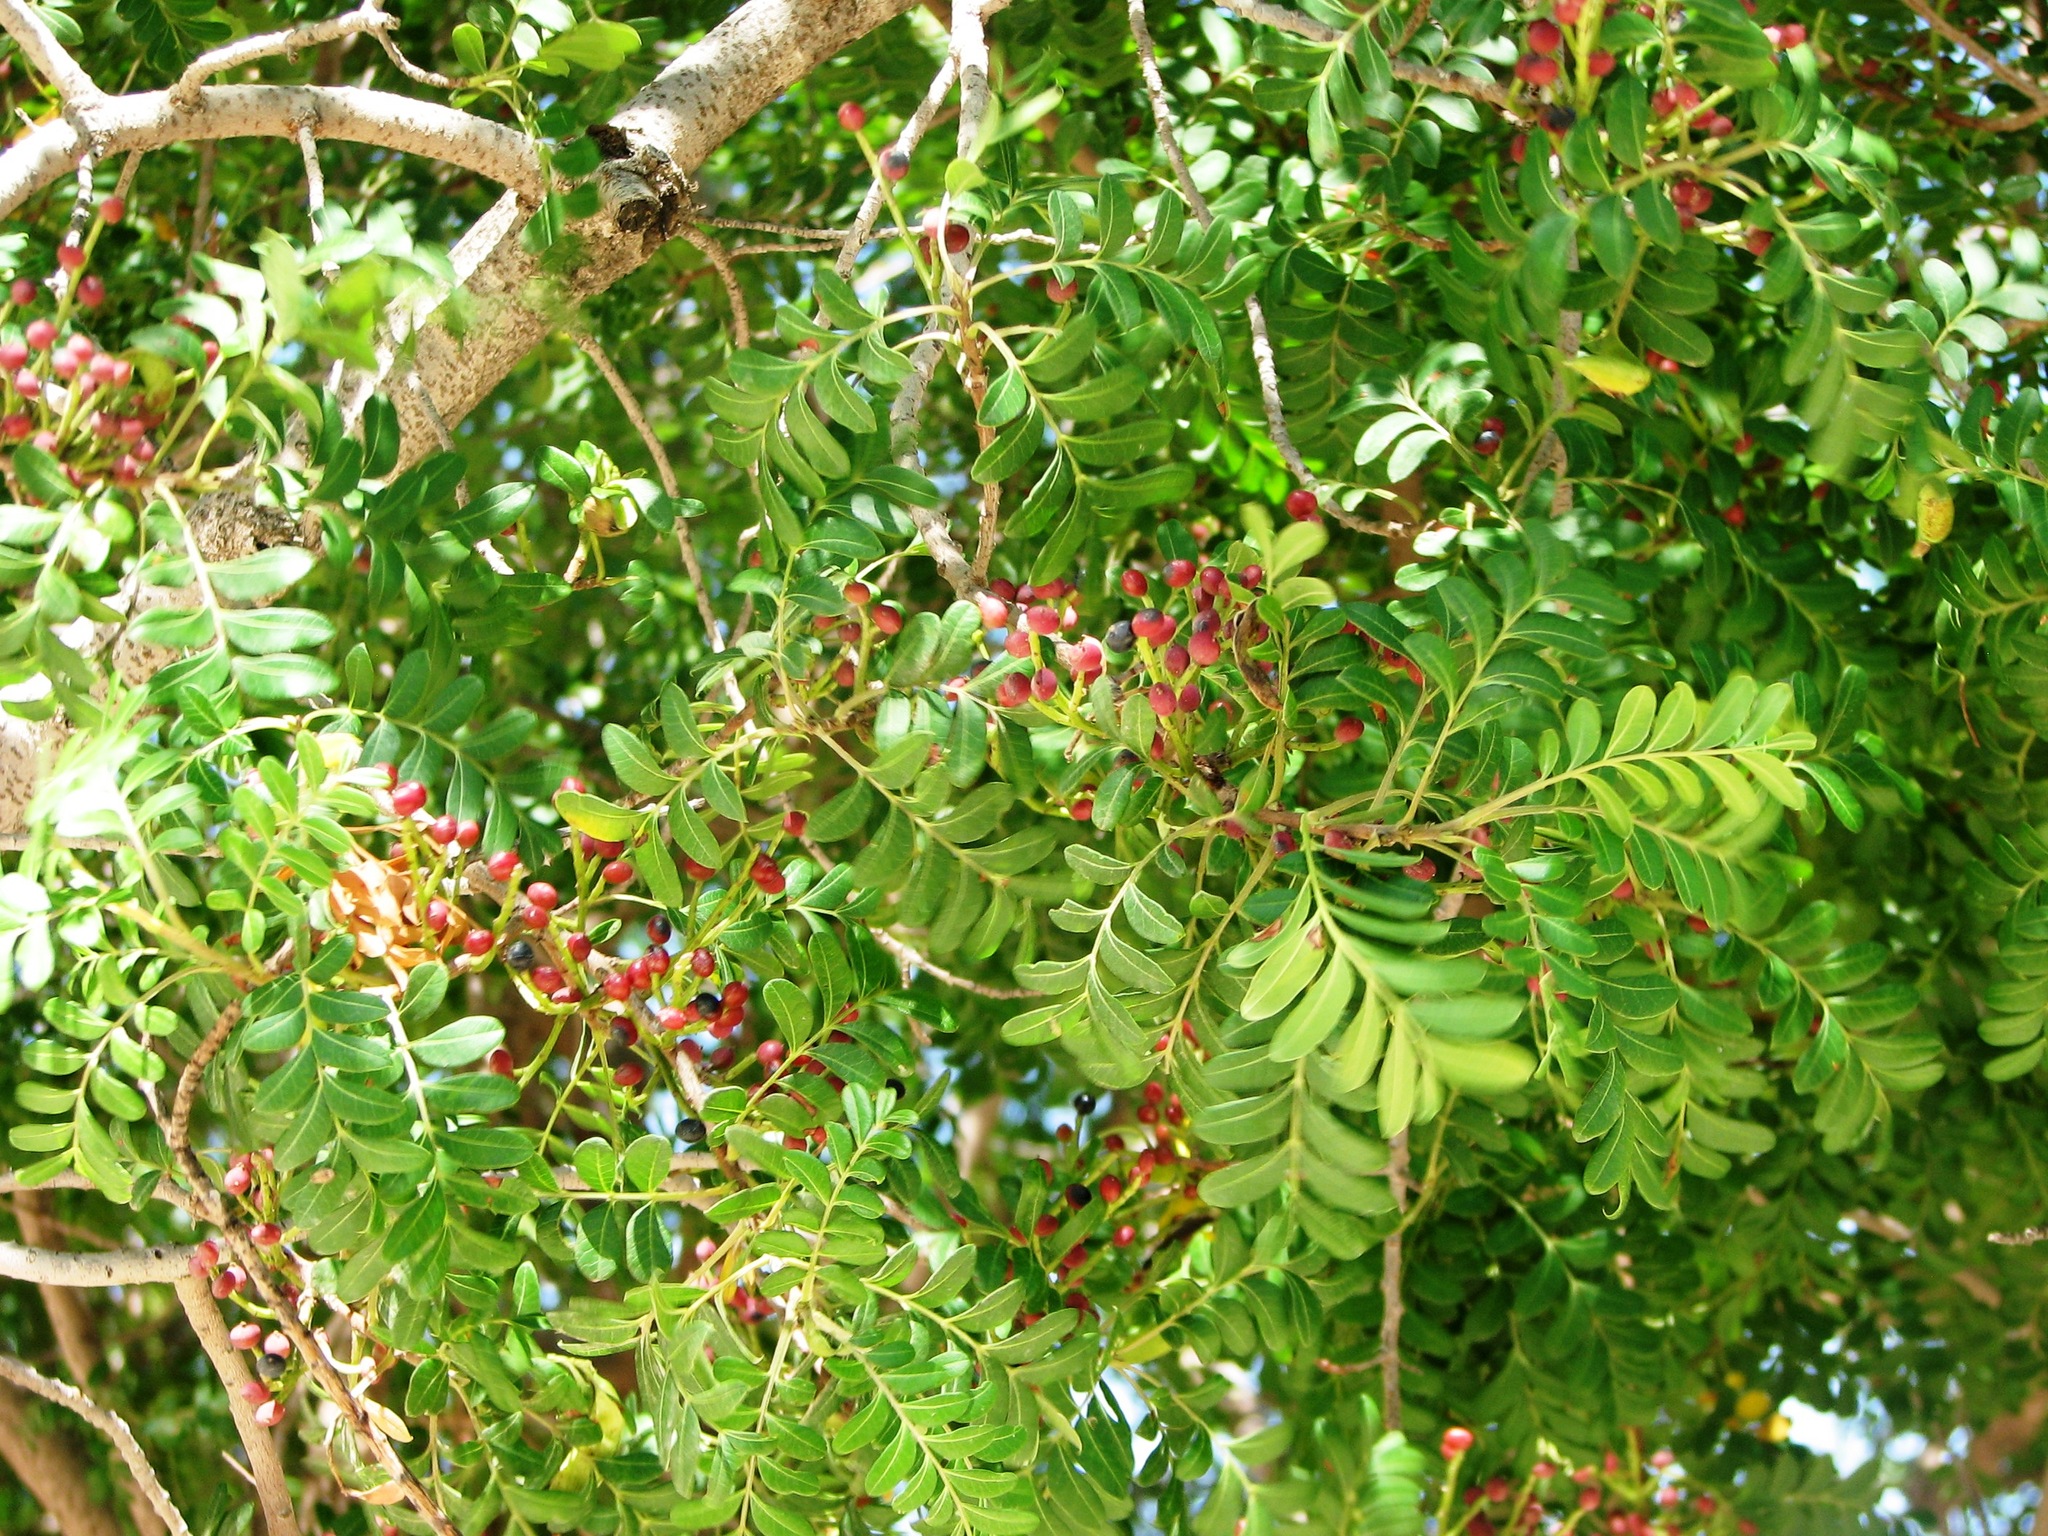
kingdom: Plantae
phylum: Tracheophyta
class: Magnoliopsida
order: Sapindales
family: Anacardiaceae
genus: Pistacia
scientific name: Pistacia mexicana
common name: Mexican pistachio
